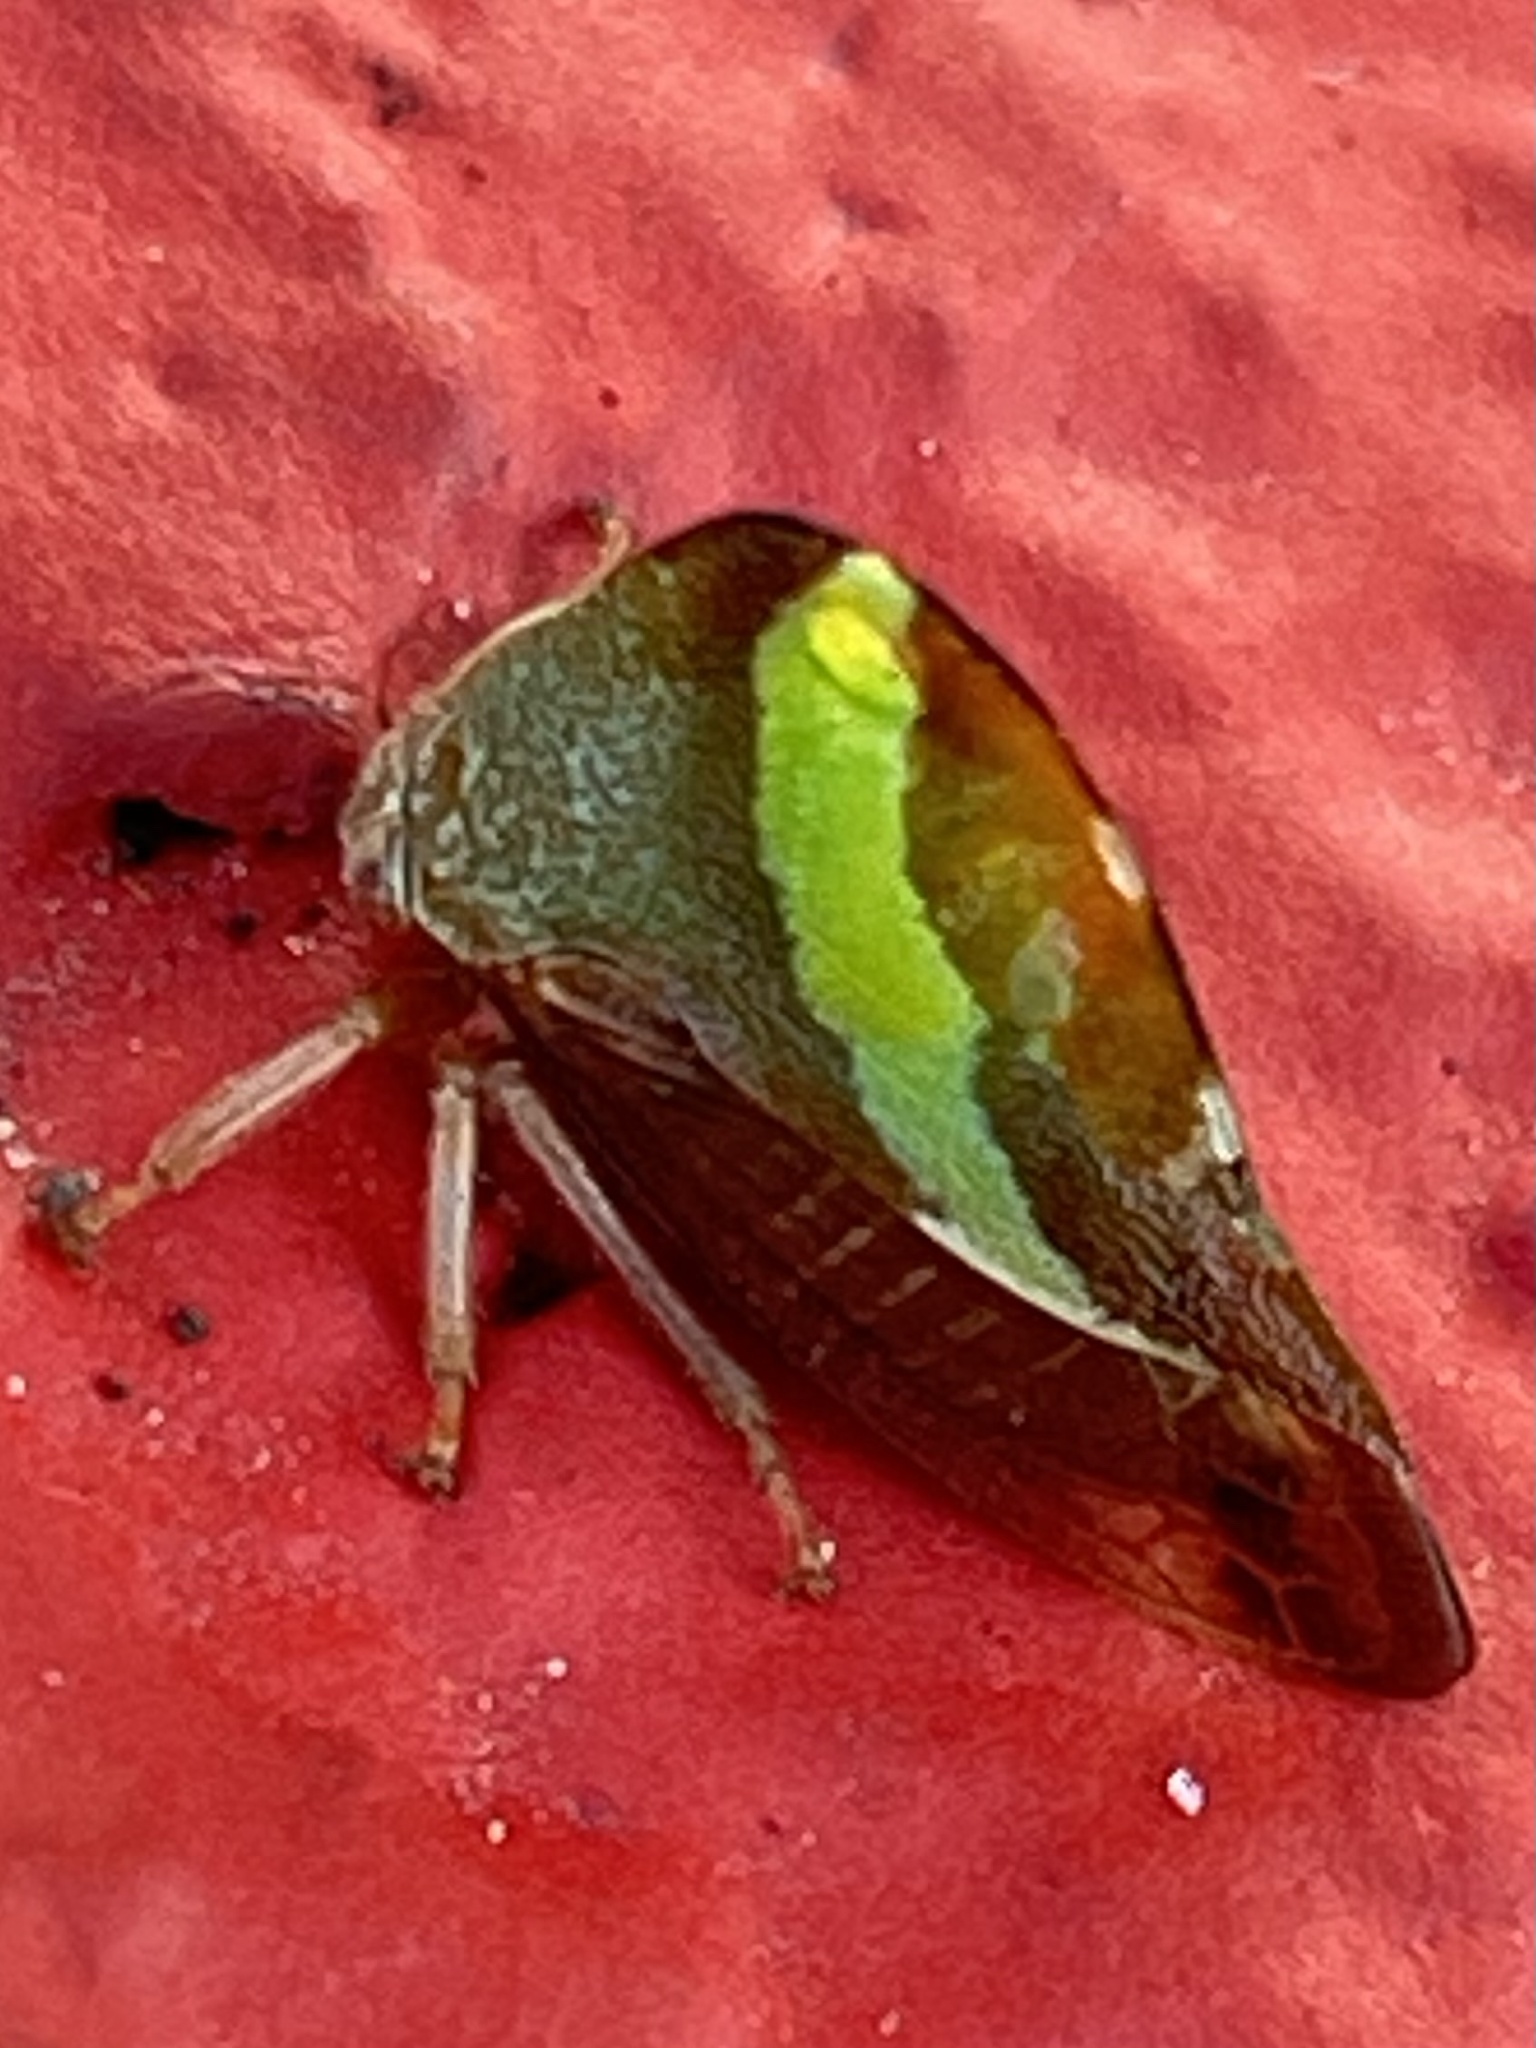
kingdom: Animalia
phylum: Arthropoda
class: Insecta
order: Hemiptera
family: Membracidae
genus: Smilia
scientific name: Smilia camelus
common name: Camel treehopper
